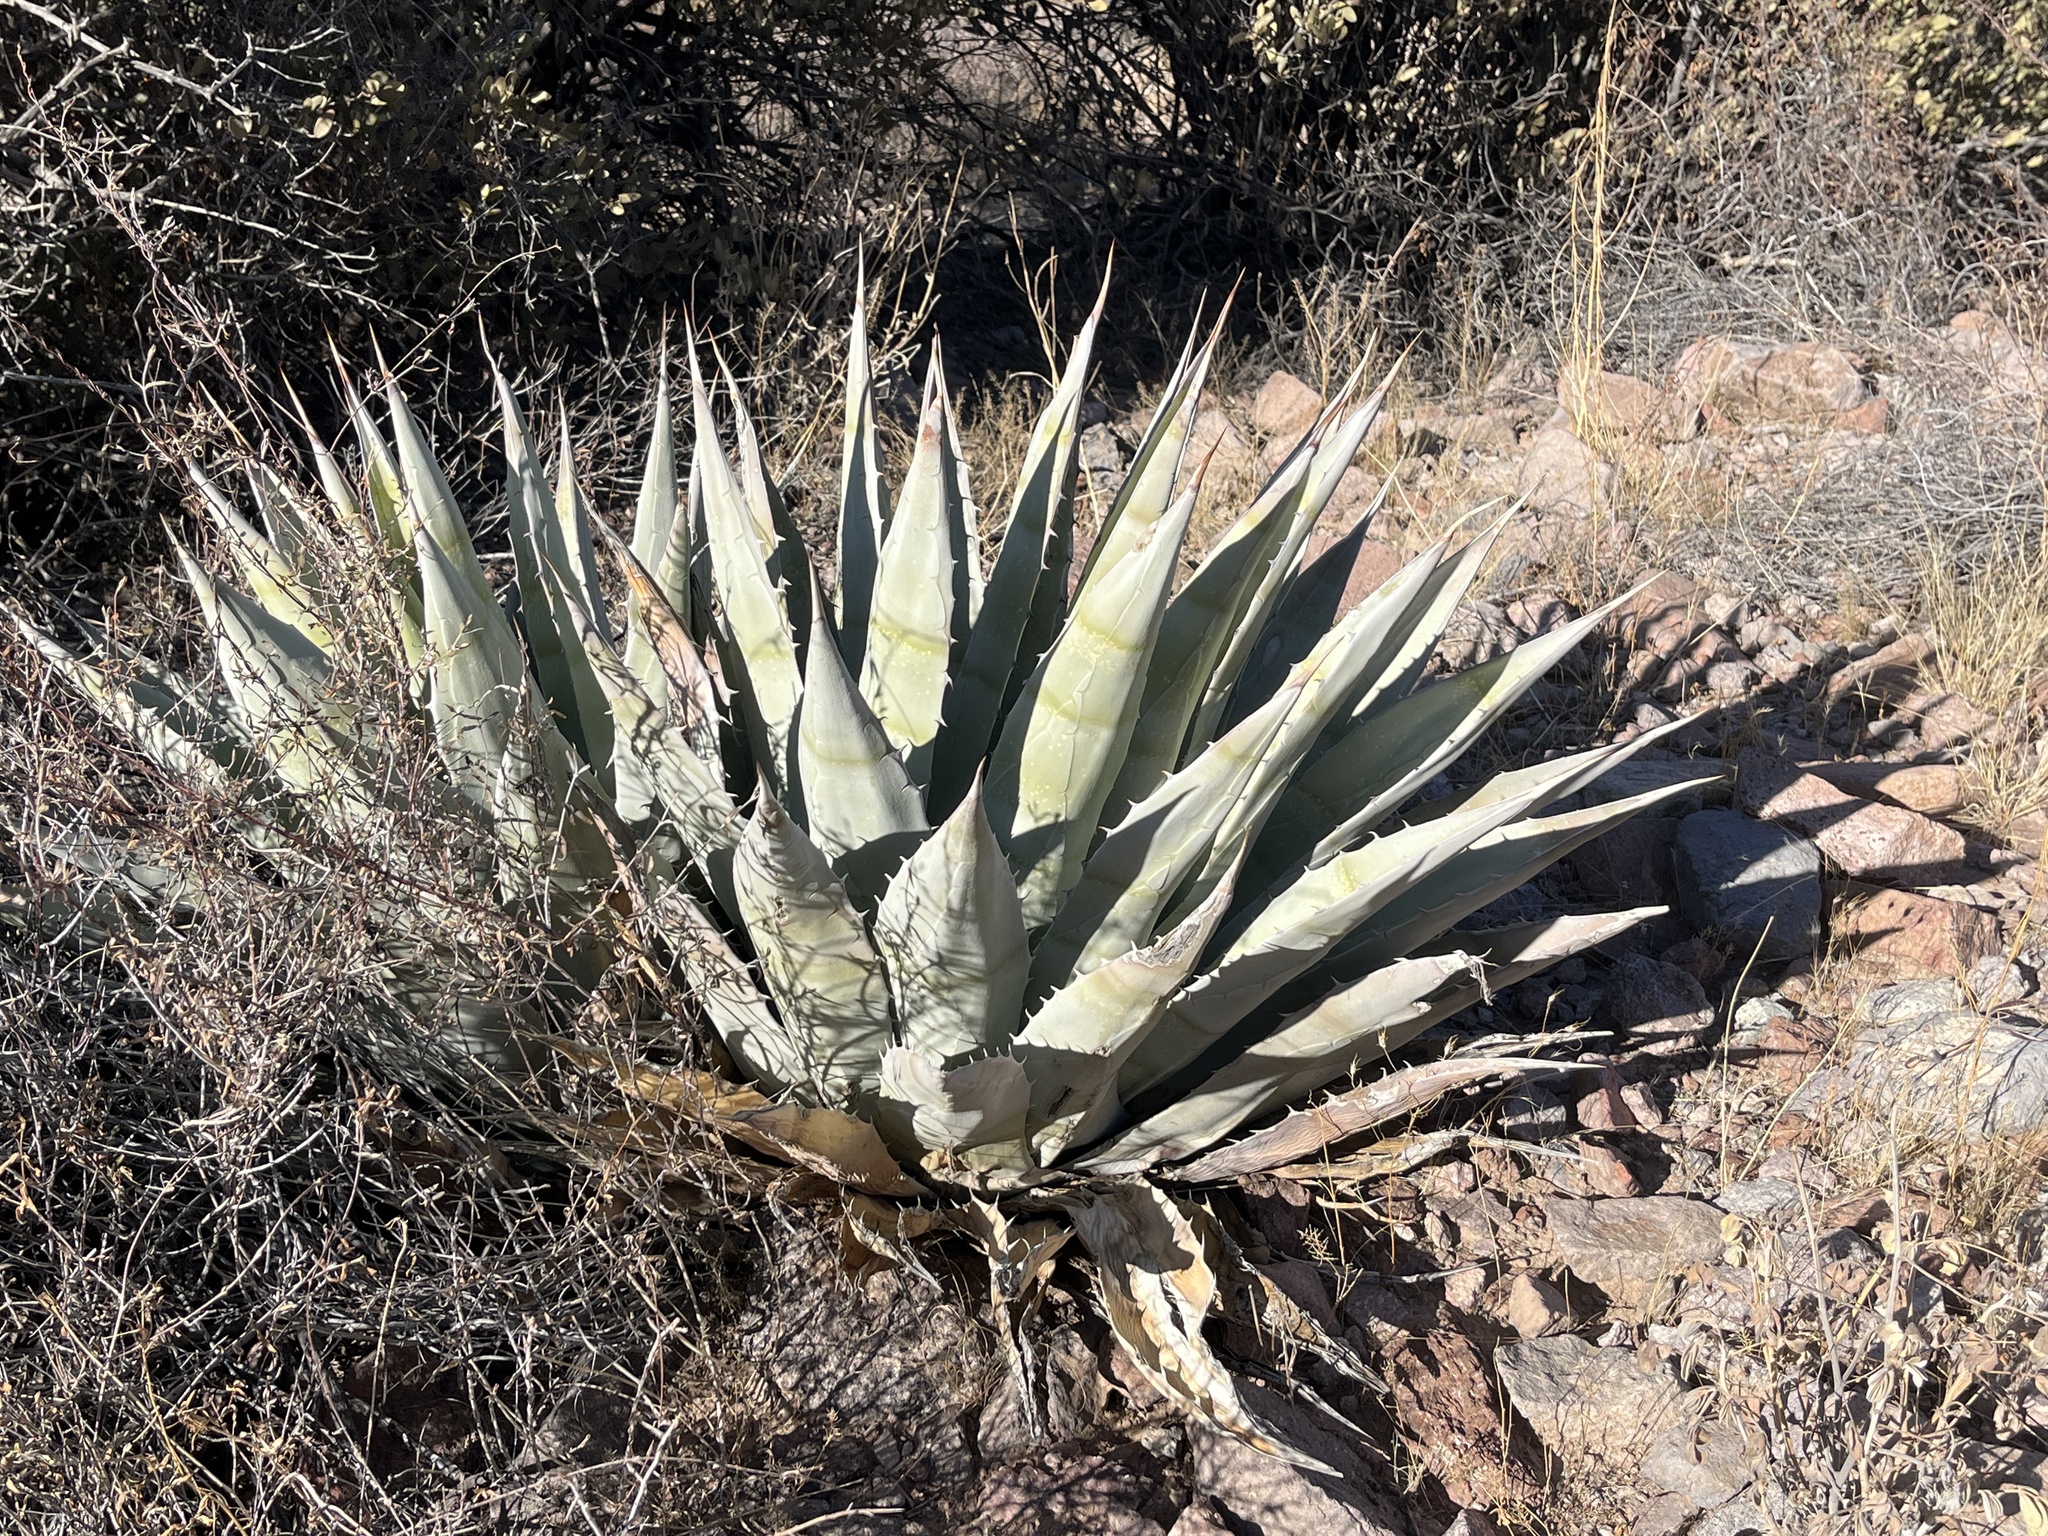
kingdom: Plantae
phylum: Tracheophyta
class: Liliopsida
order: Asparagales
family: Asparagaceae
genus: Agave
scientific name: Agave simplex
